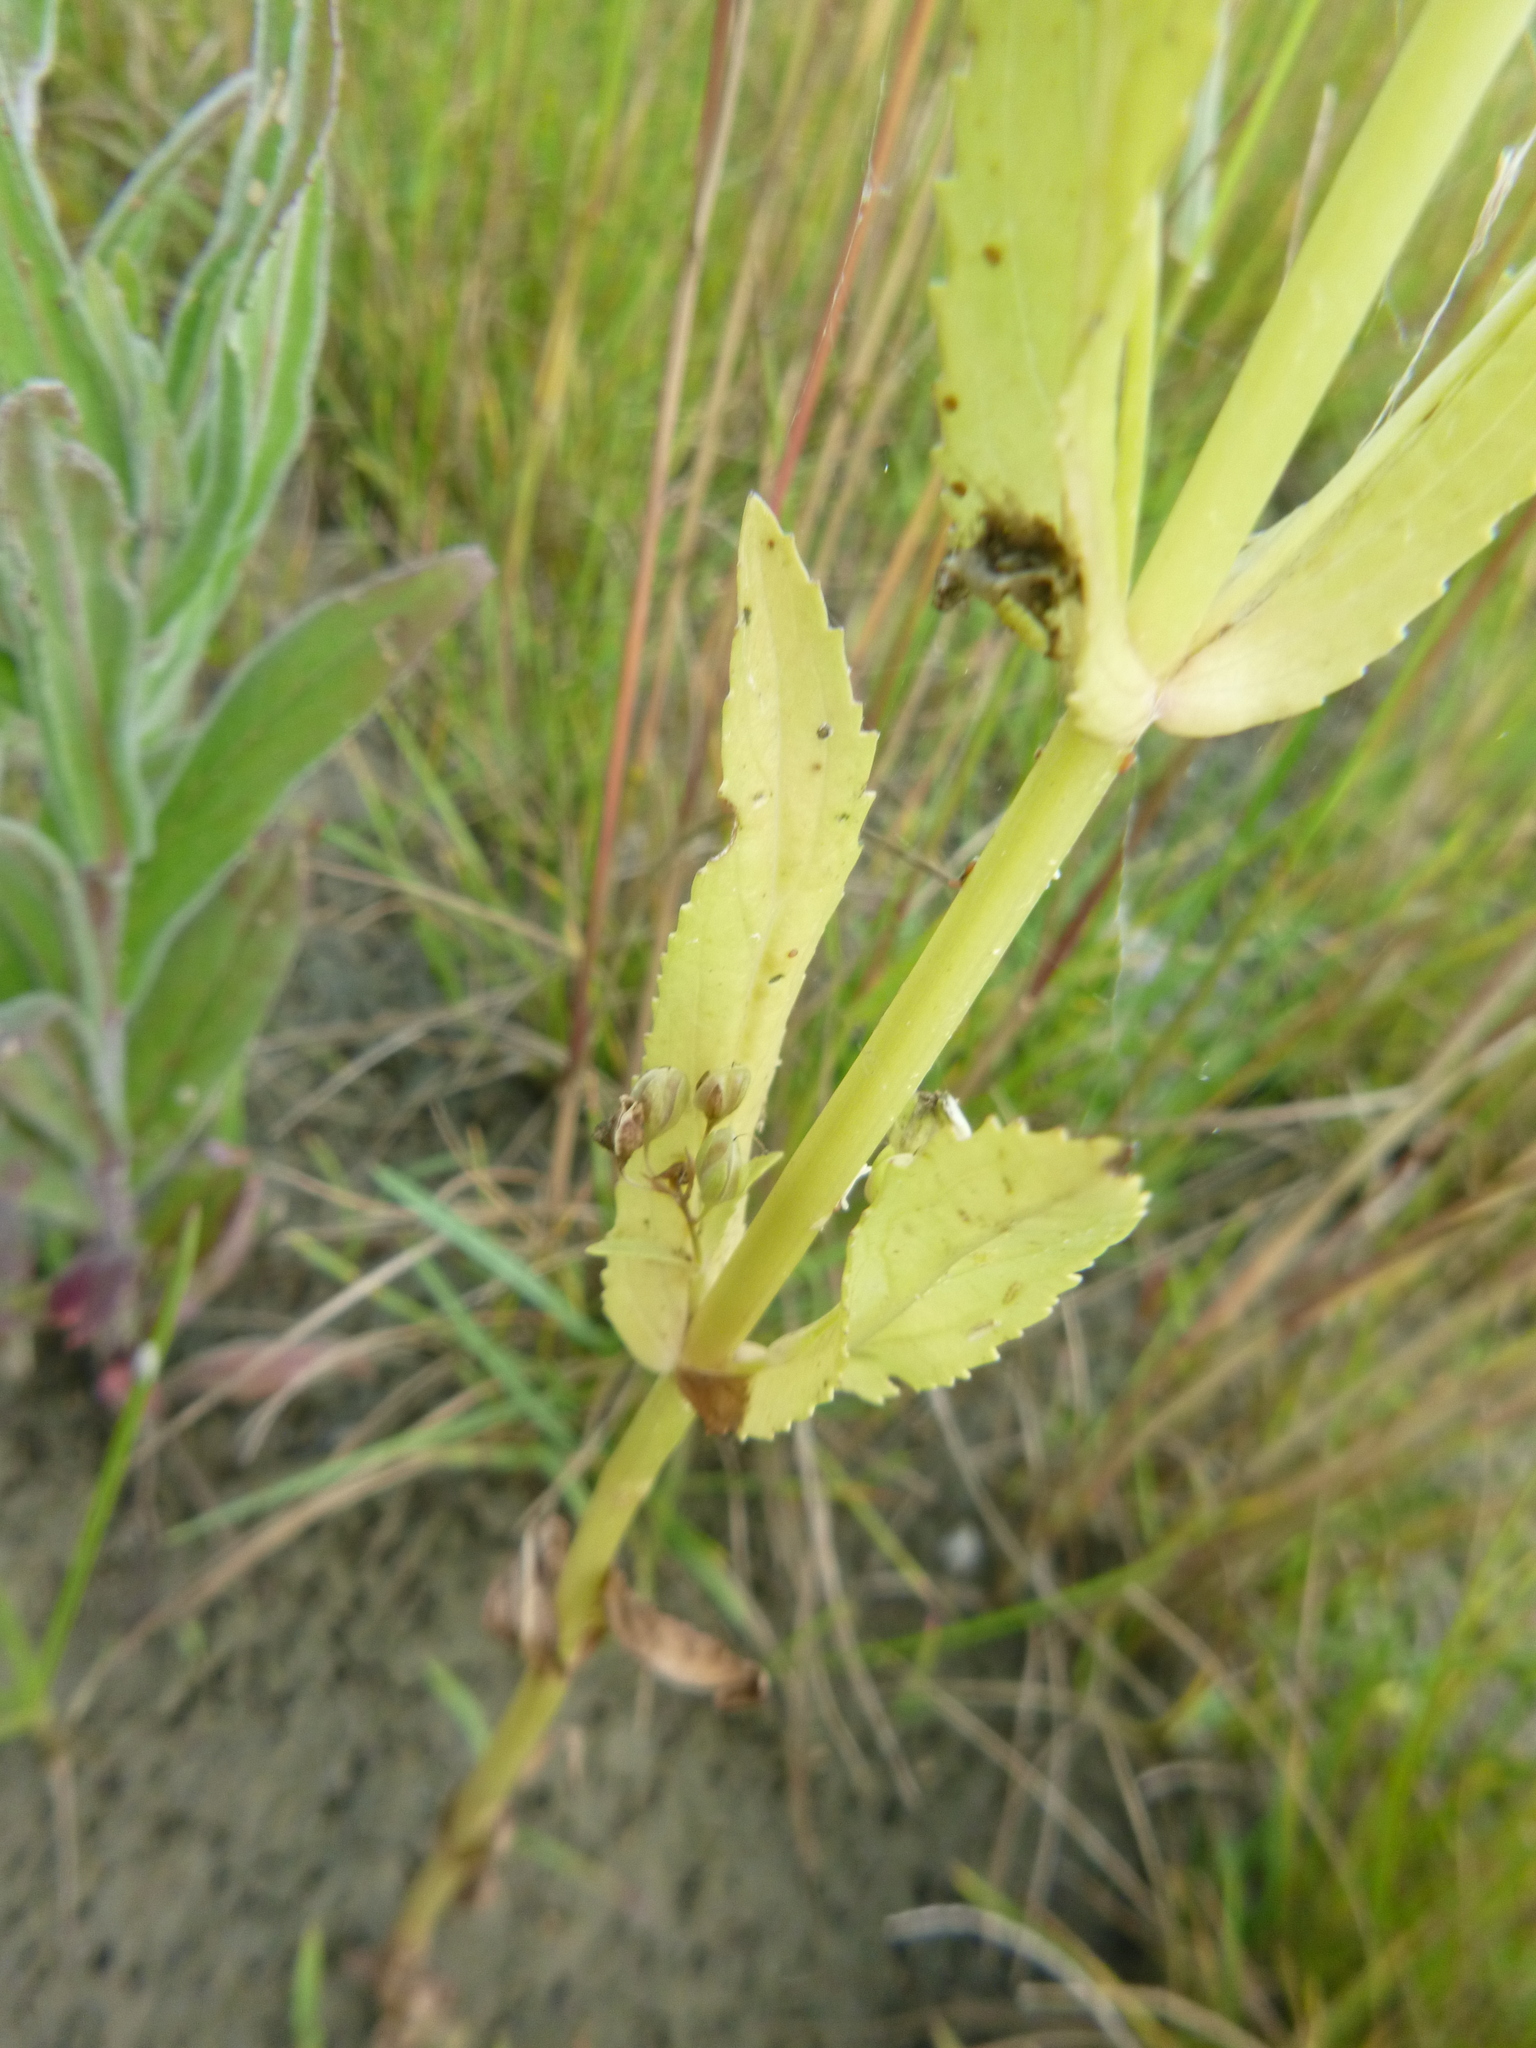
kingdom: Plantae
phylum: Tracheophyta
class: Magnoliopsida
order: Lamiales
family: Plantaginaceae
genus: Veronica
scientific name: Veronica anagallis-aquatica
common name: Water speedwell
